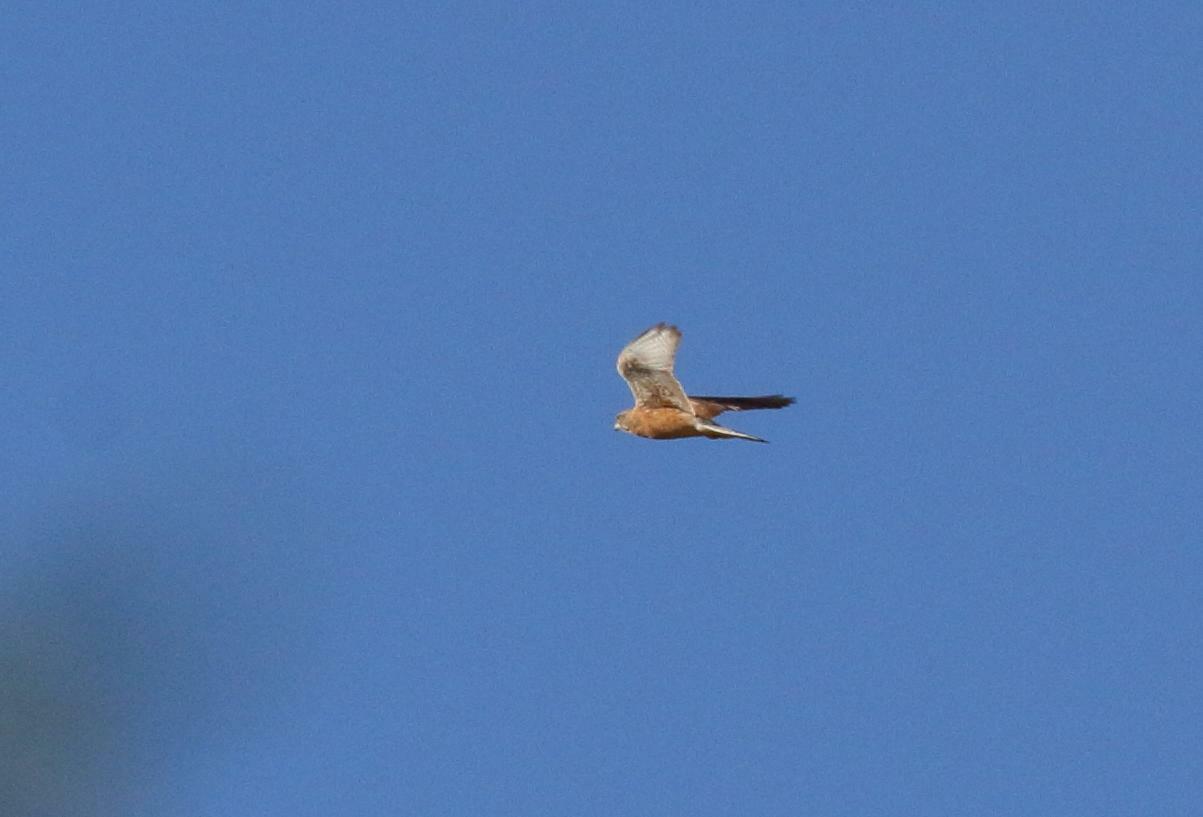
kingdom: Animalia
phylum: Chordata
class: Aves
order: Falconiformes
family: Falconidae
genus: Falco
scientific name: Falco rupicoloides
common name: Greater kestrel
